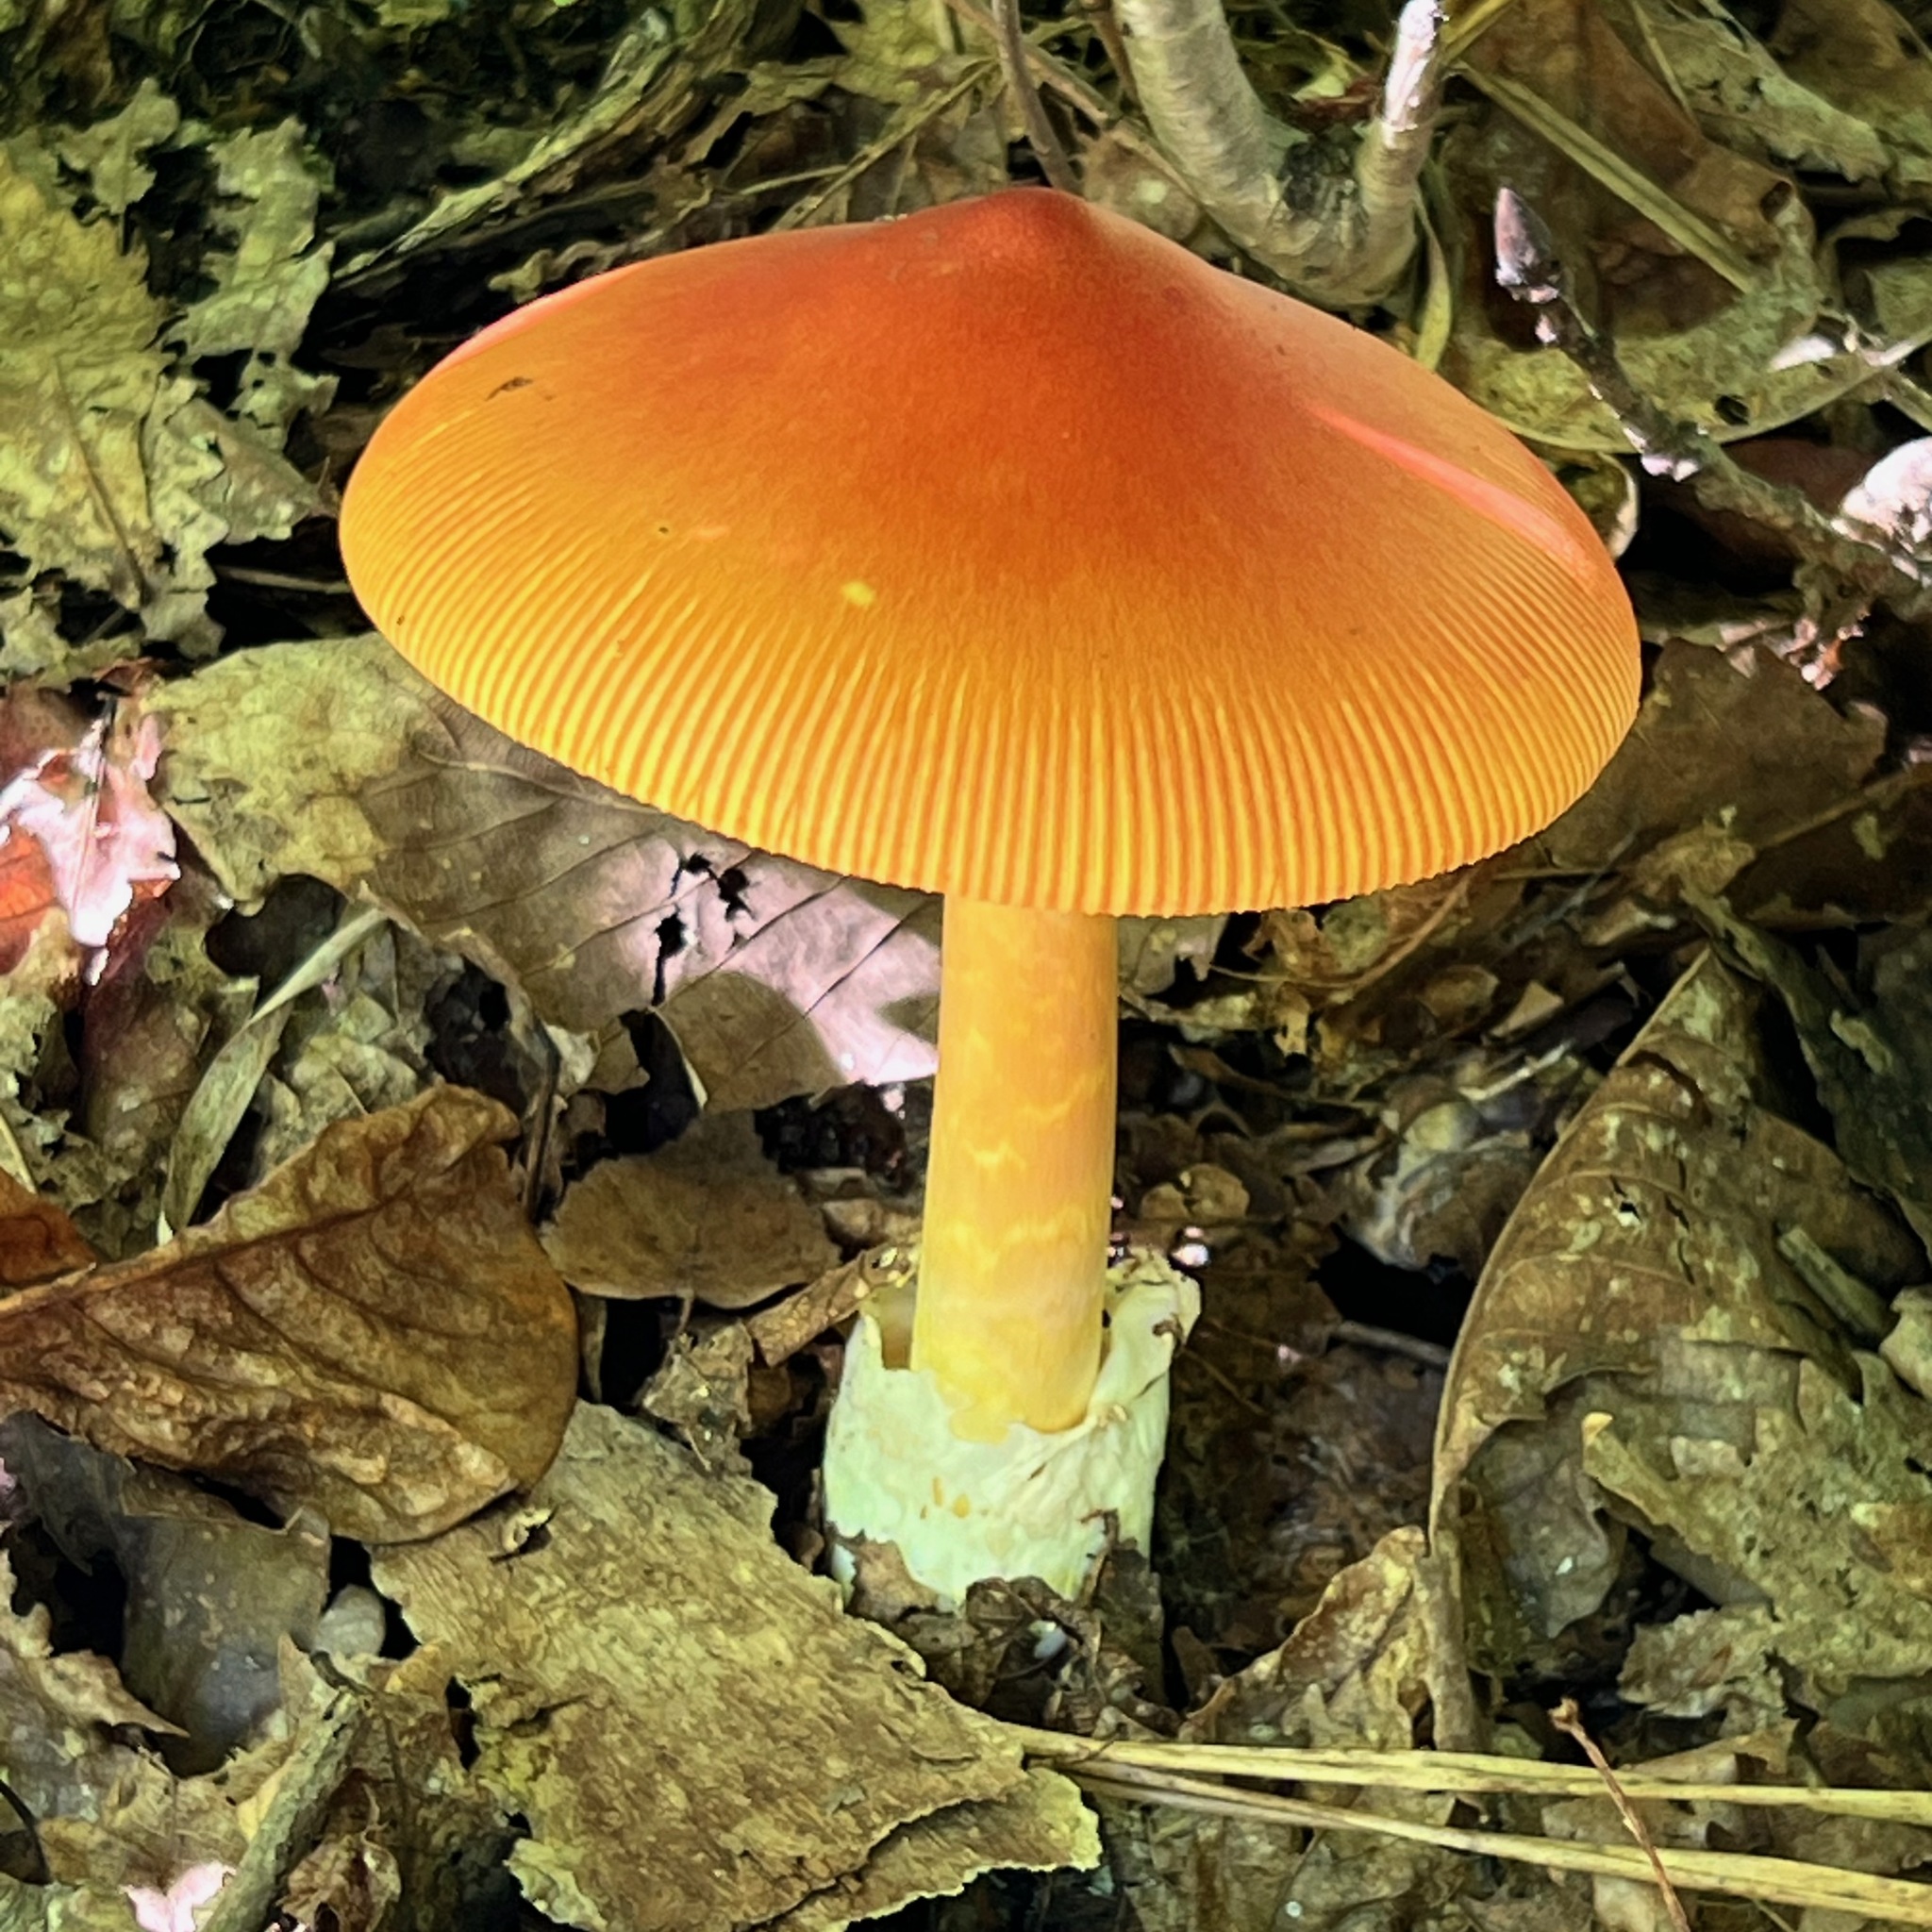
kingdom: Fungi
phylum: Basidiomycota
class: Agaricomycetes
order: Agaricales
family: Amanitaceae
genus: Amanita
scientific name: Amanita caesareoides
